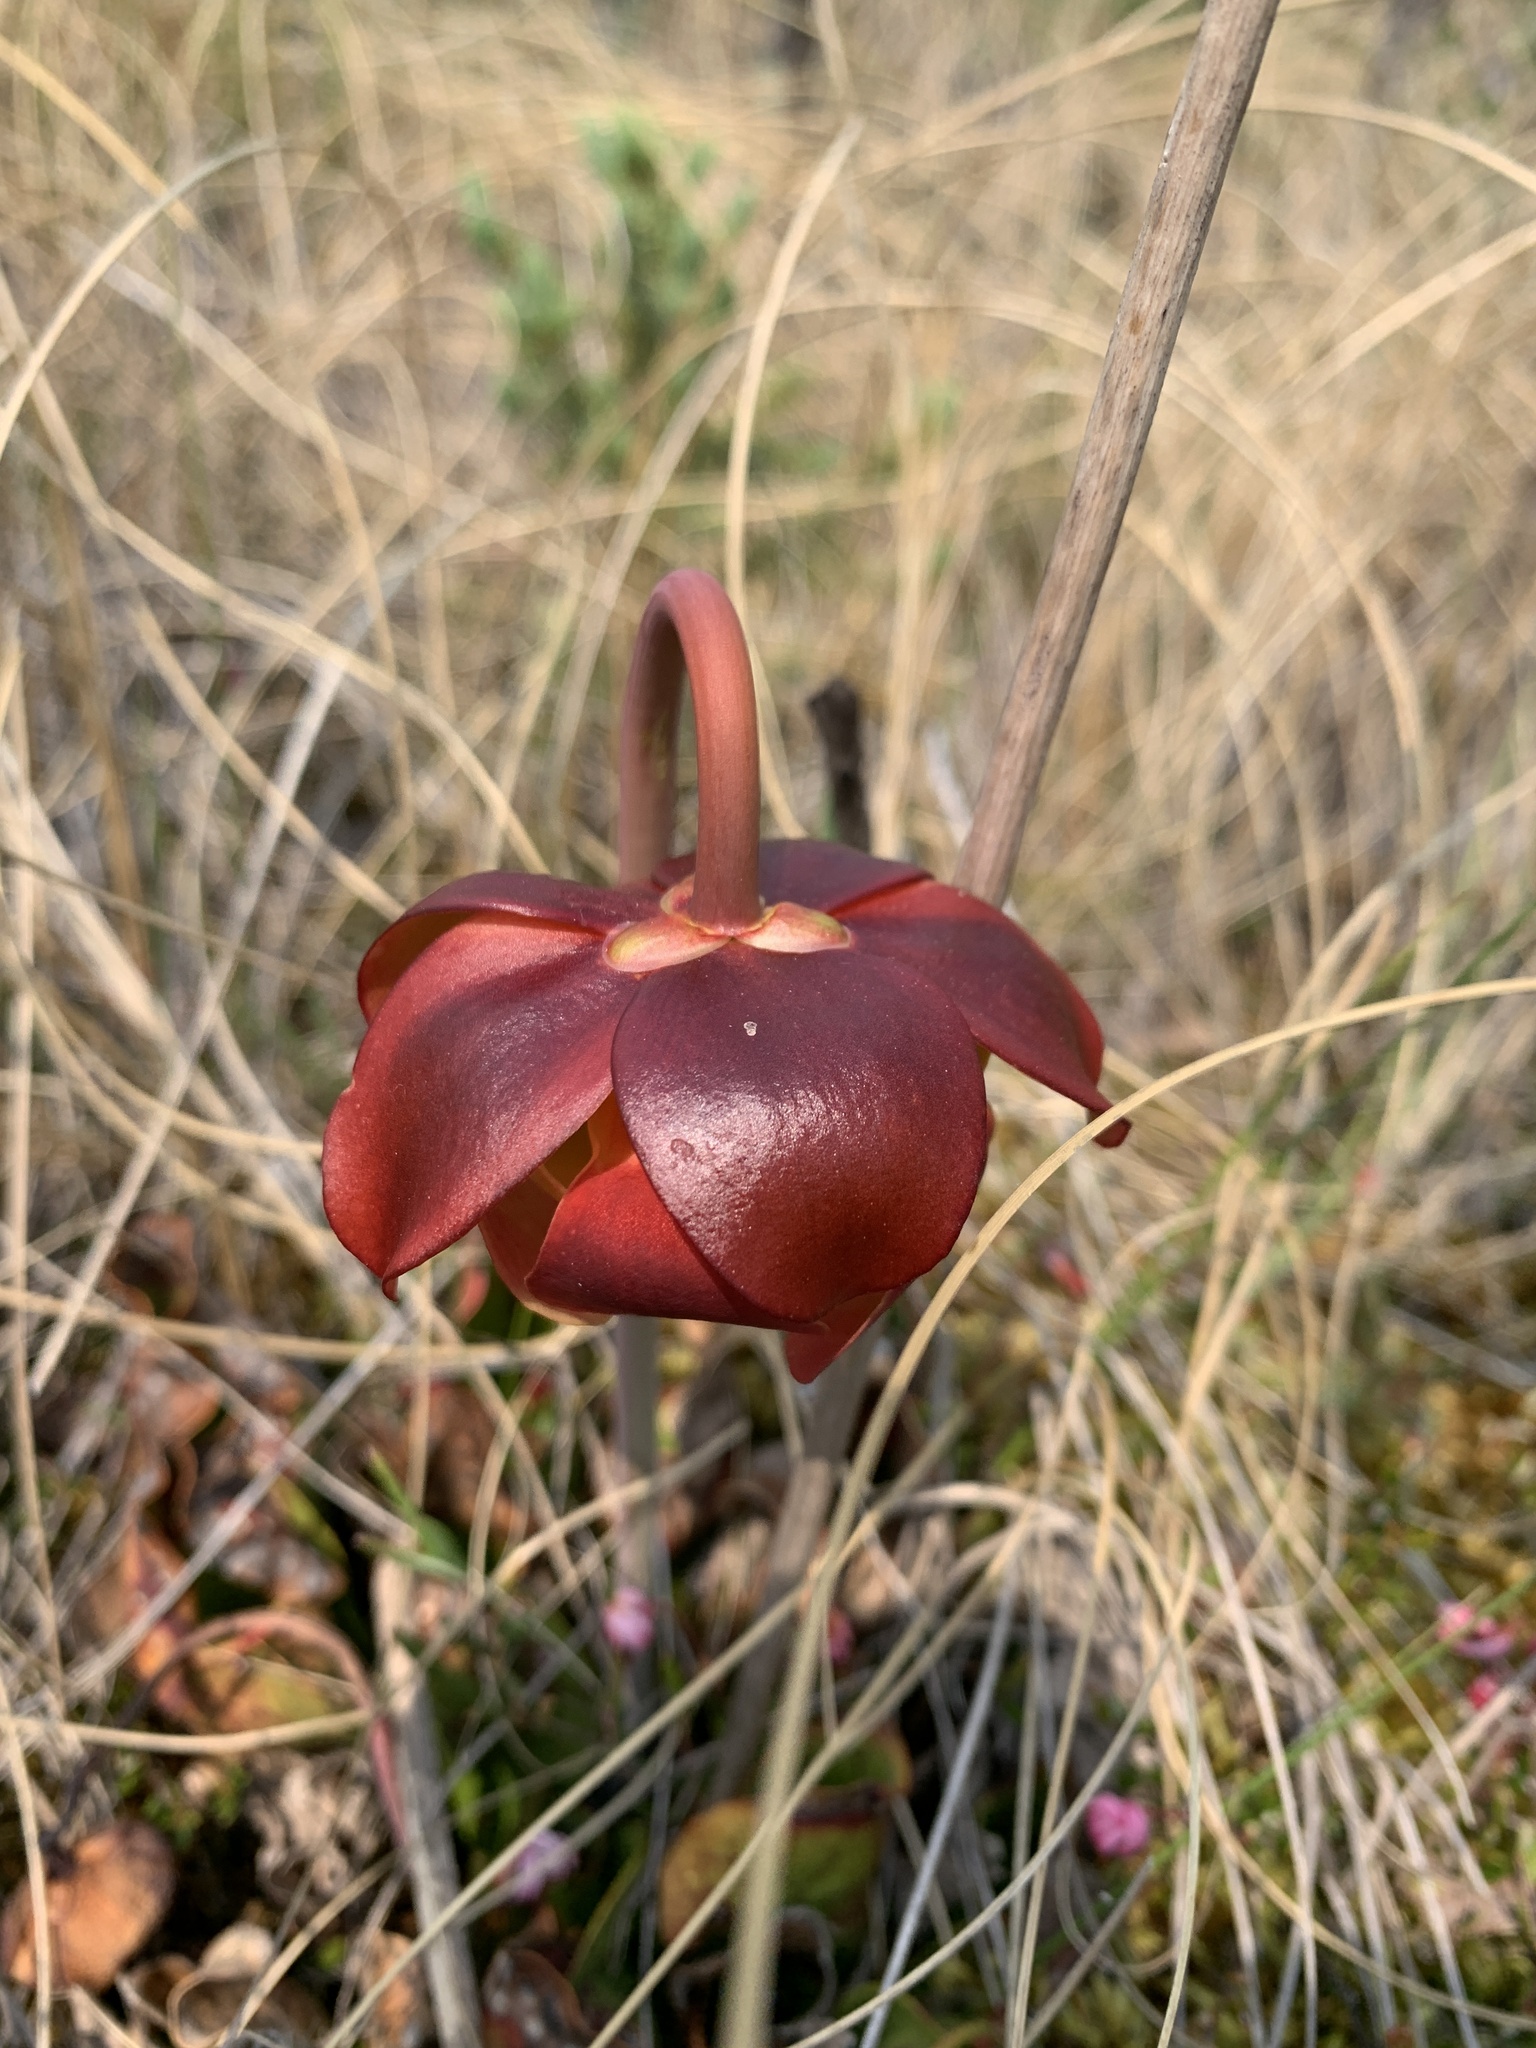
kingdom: Plantae
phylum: Tracheophyta
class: Magnoliopsida
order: Ericales
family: Sarraceniaceae
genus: Sarracenia
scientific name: Sarracenia purpurea
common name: Pitcherplant
